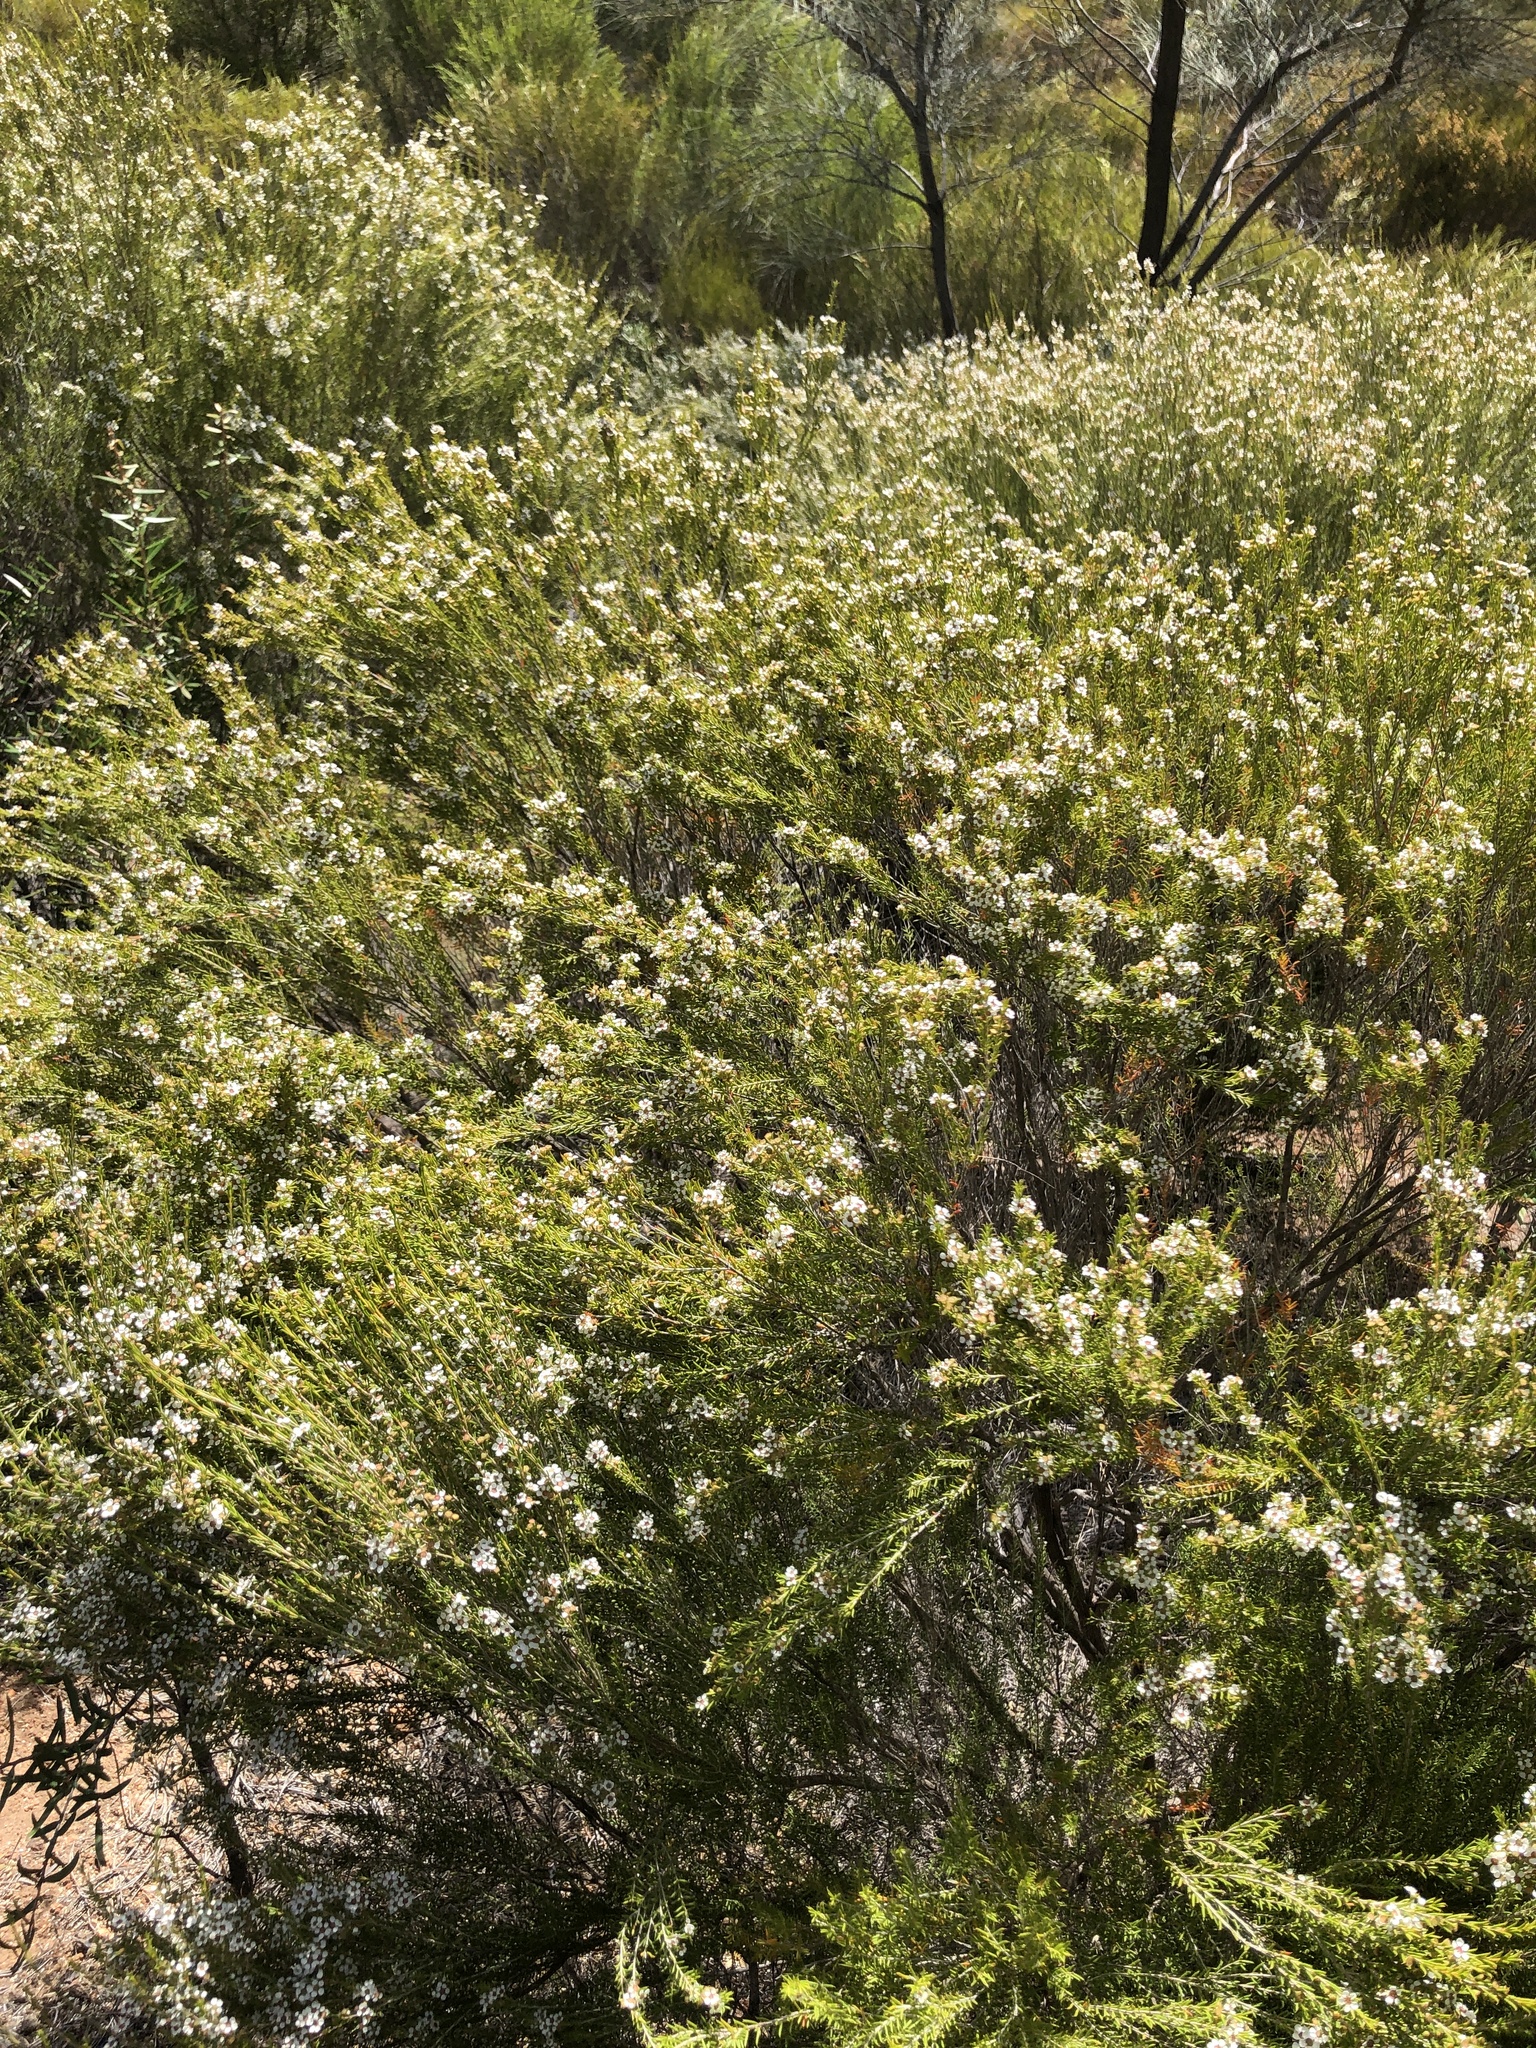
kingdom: Plantae
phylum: Tracheophyta
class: Magnoliopsida
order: Myrtales
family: Myrtaceae
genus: Hysterobaeckea
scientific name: Hysterobaeckea behrii
